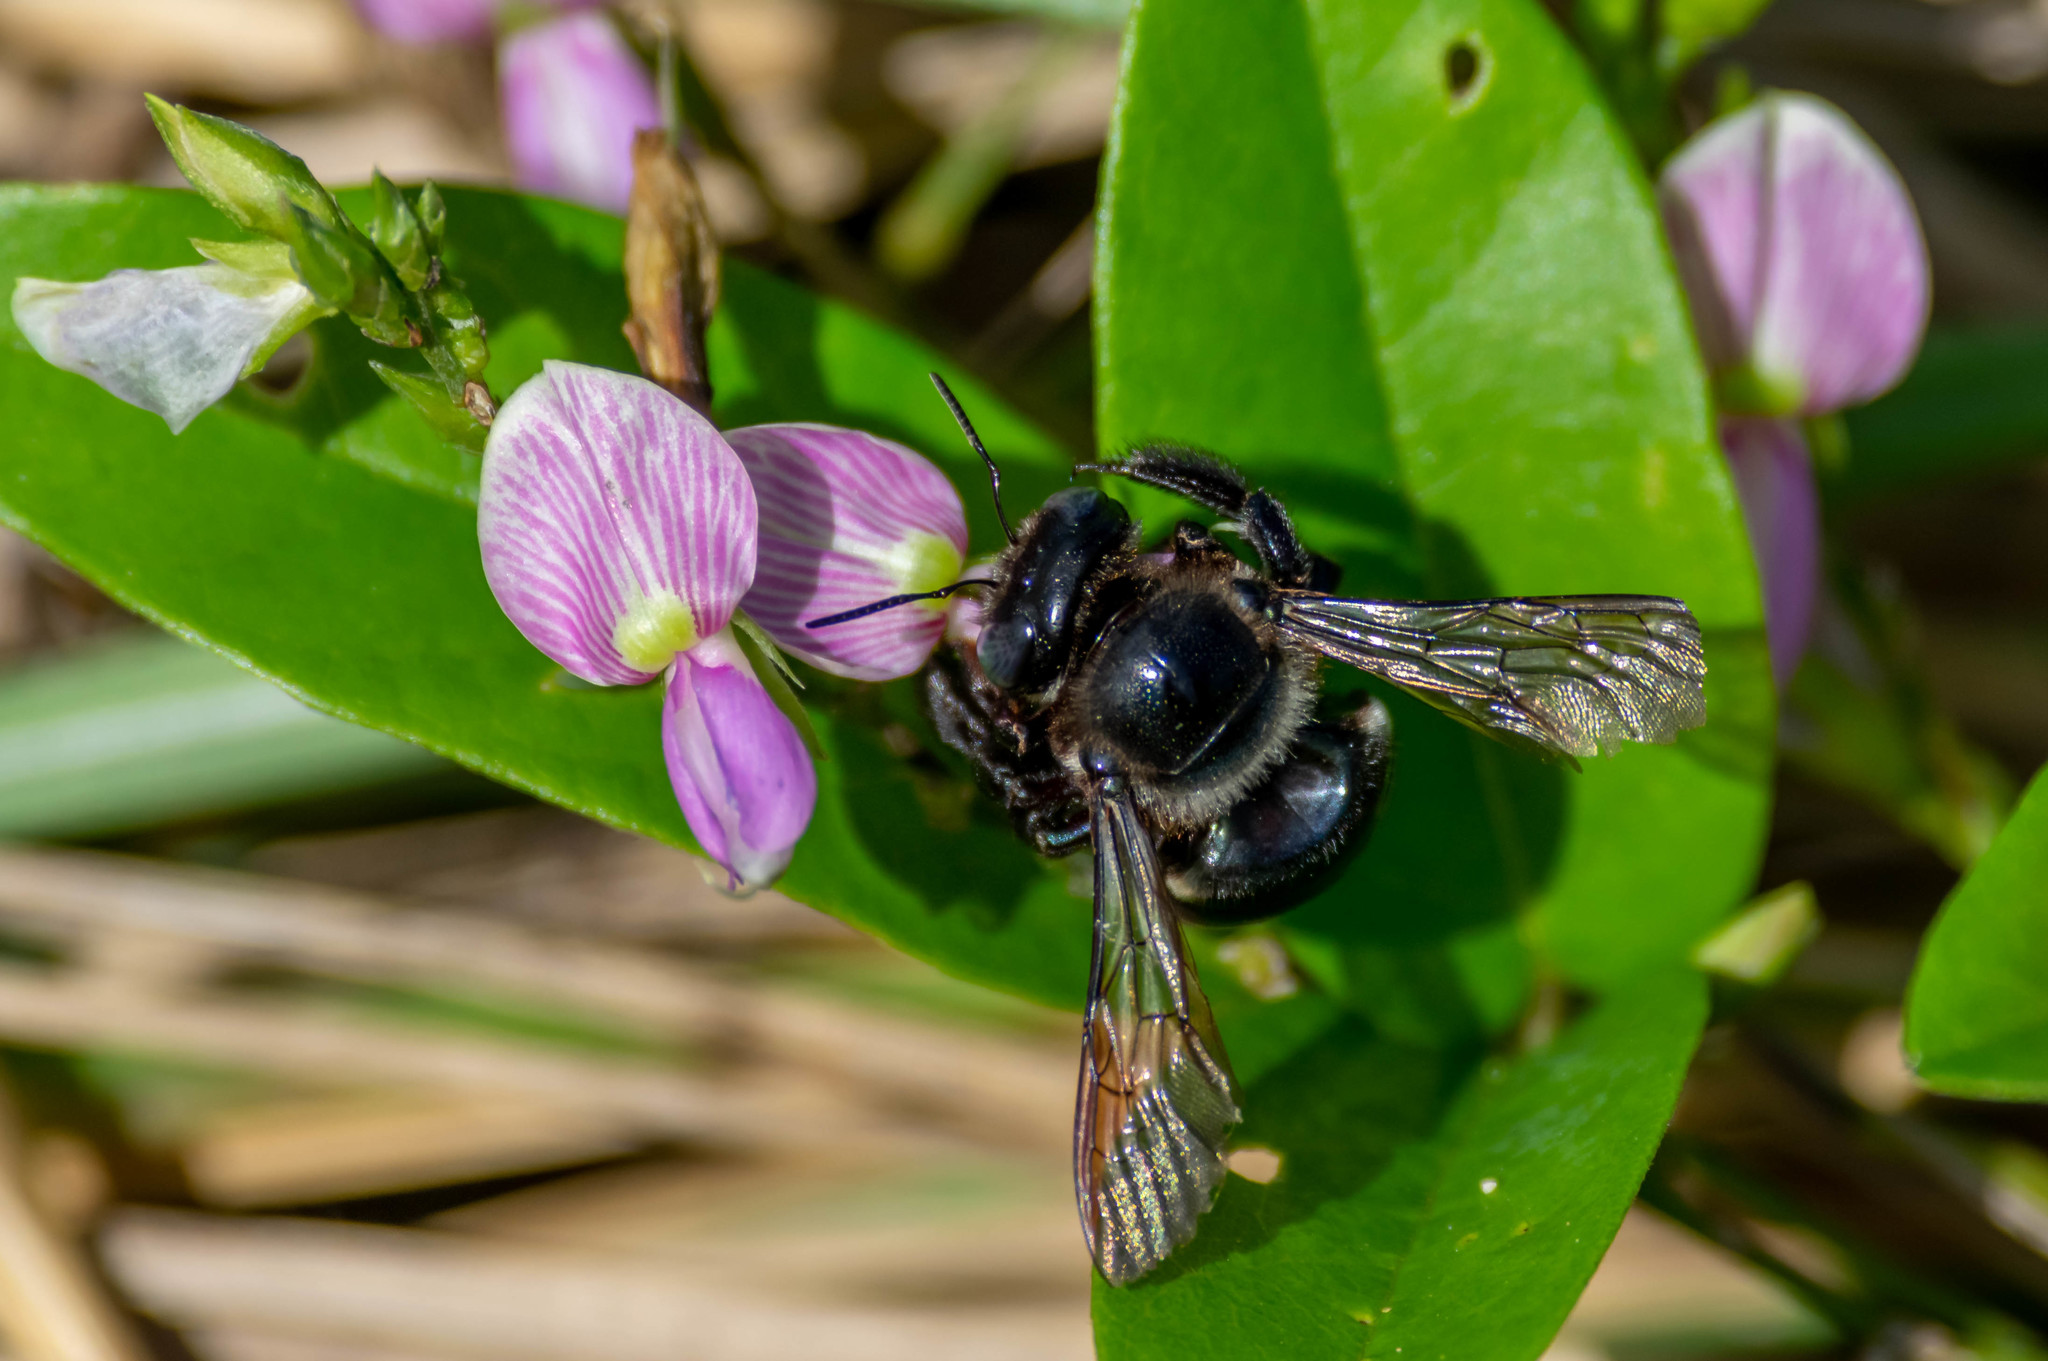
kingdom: Animalia
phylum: Arthropoda
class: Insecta
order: Hymenoptera
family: Apidae
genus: Xylocopa
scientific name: Xylocopa micans
